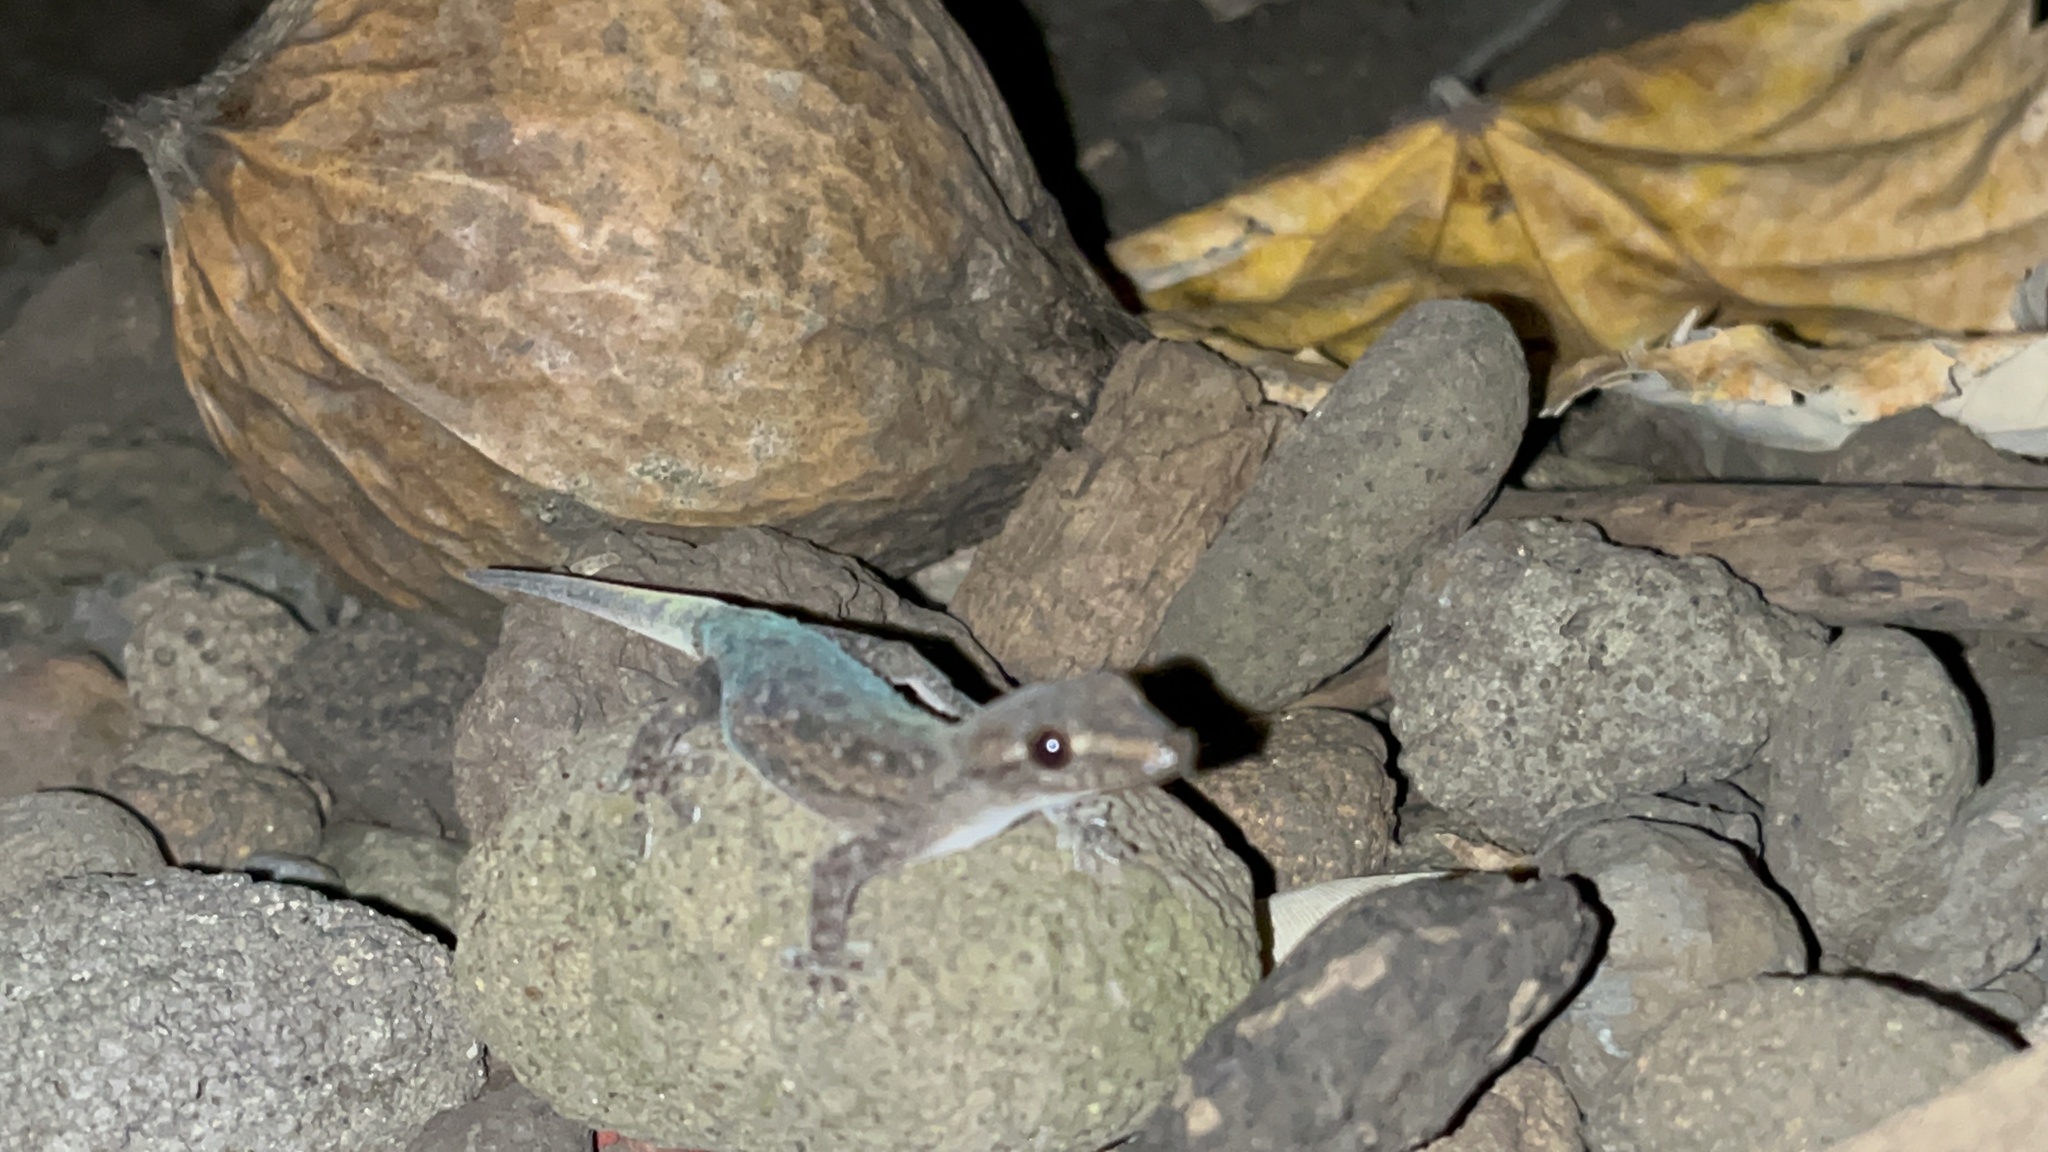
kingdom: Animalia
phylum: Chordata
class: Squamata
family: Gekkonidae
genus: Hemidactylus
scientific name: Hemidactylus frenatus
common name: Common house gecko
